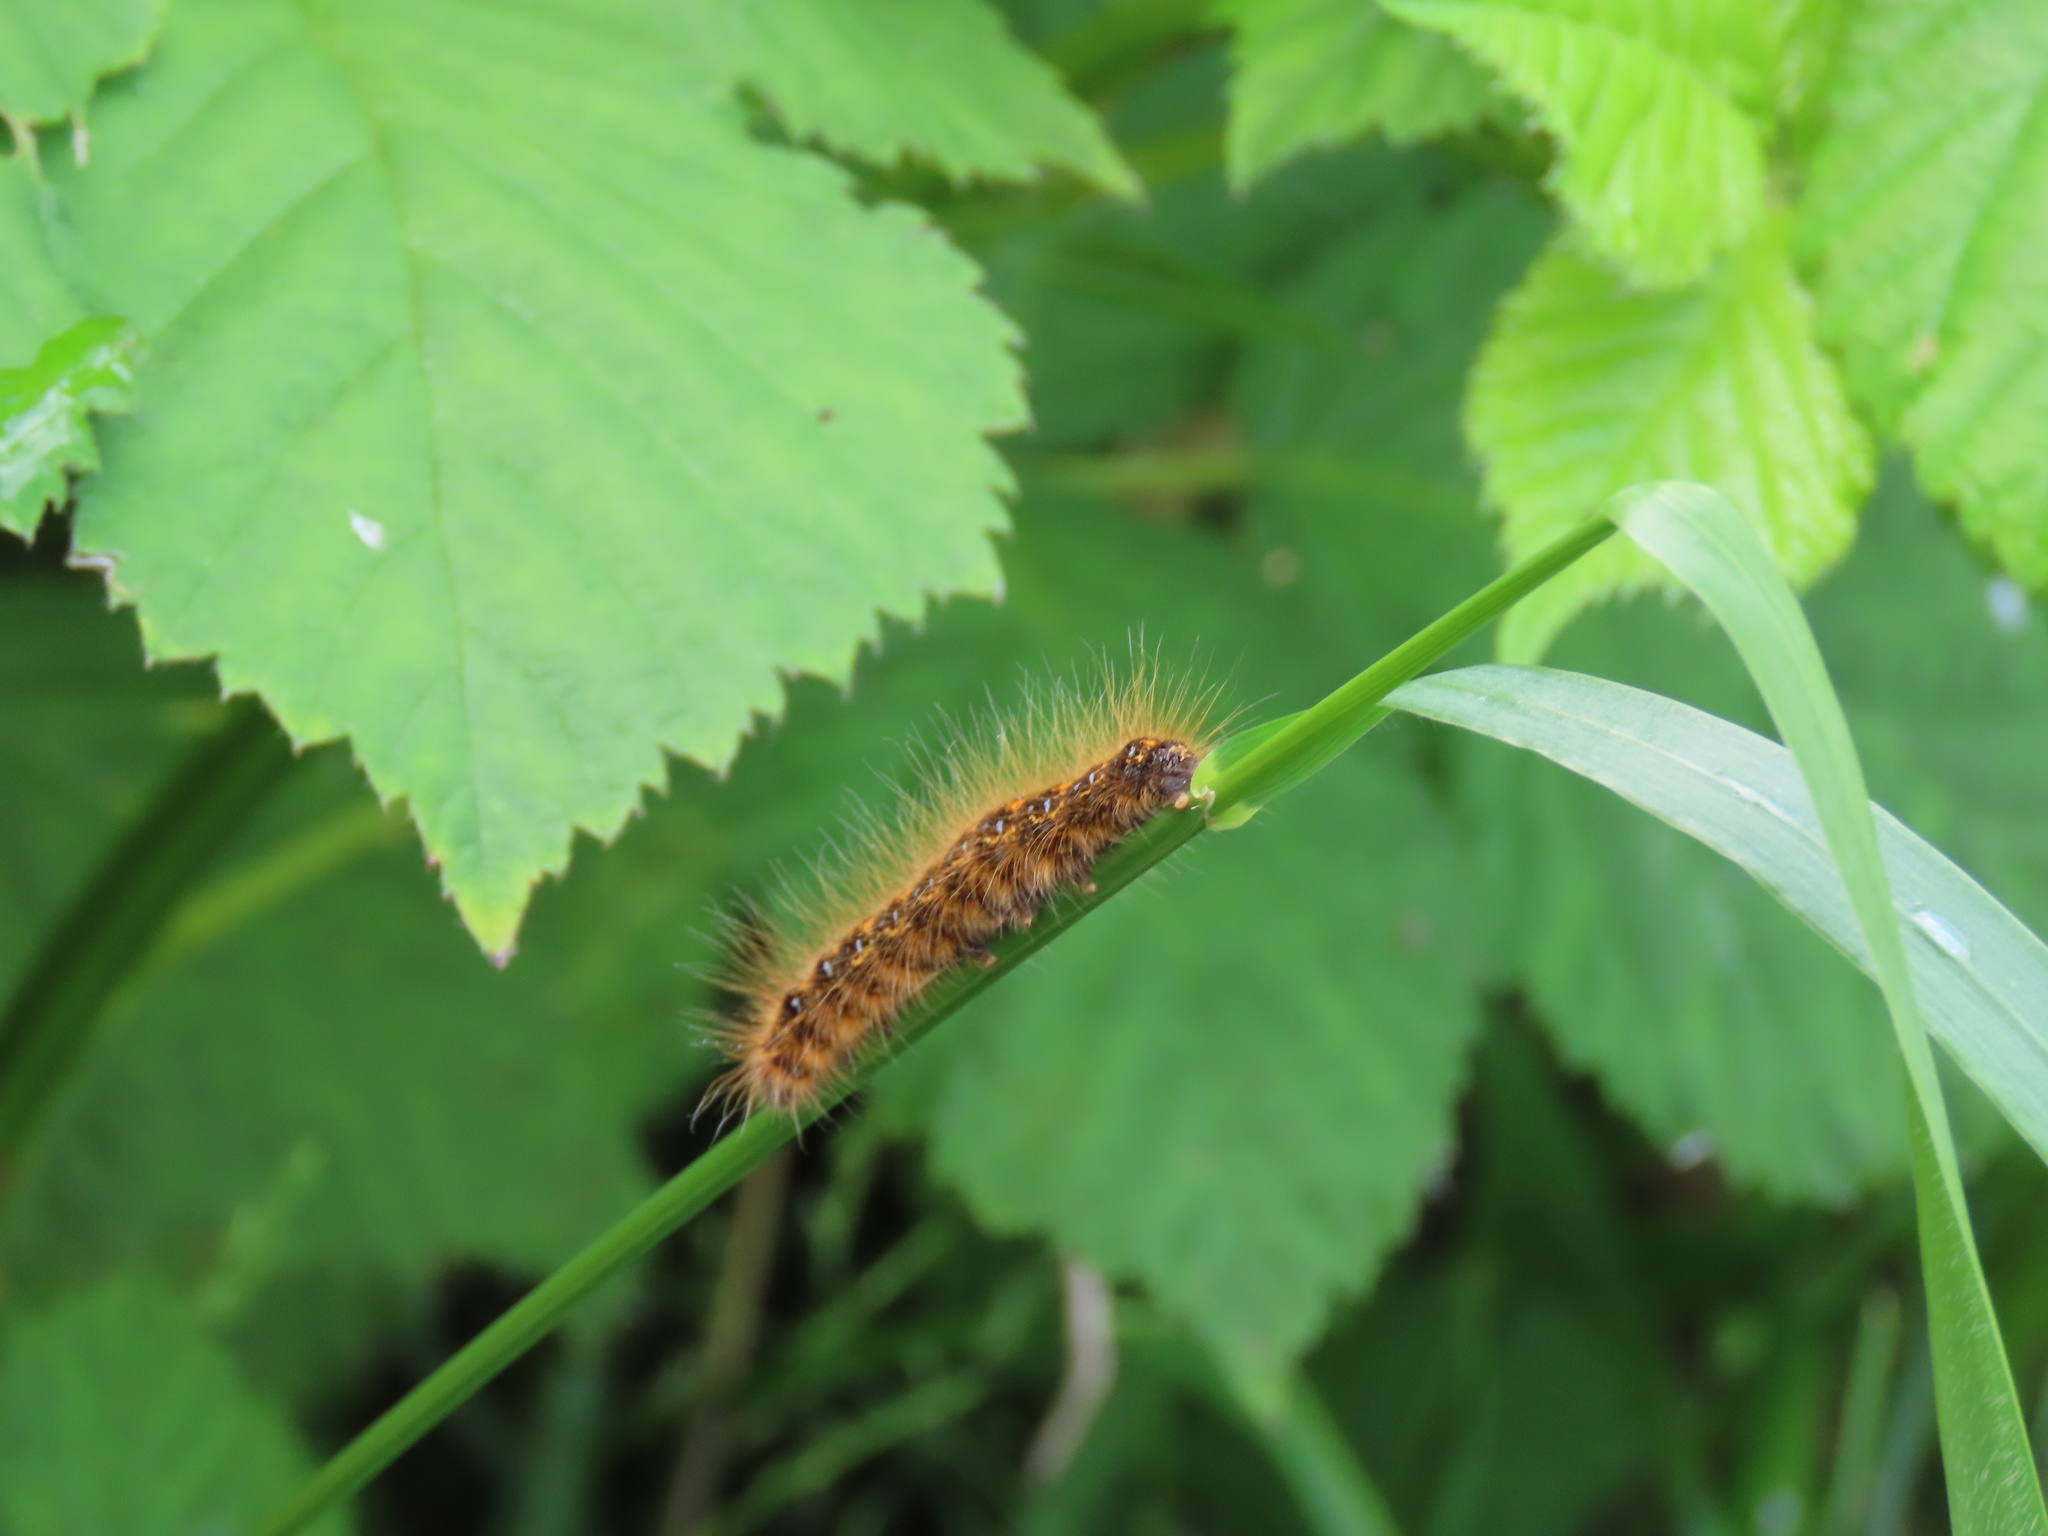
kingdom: Animalia
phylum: Arthropoda
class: Insecta
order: Lepidoptera
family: Lasiocampidae
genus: Malacosoma
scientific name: Malacosoma californica
